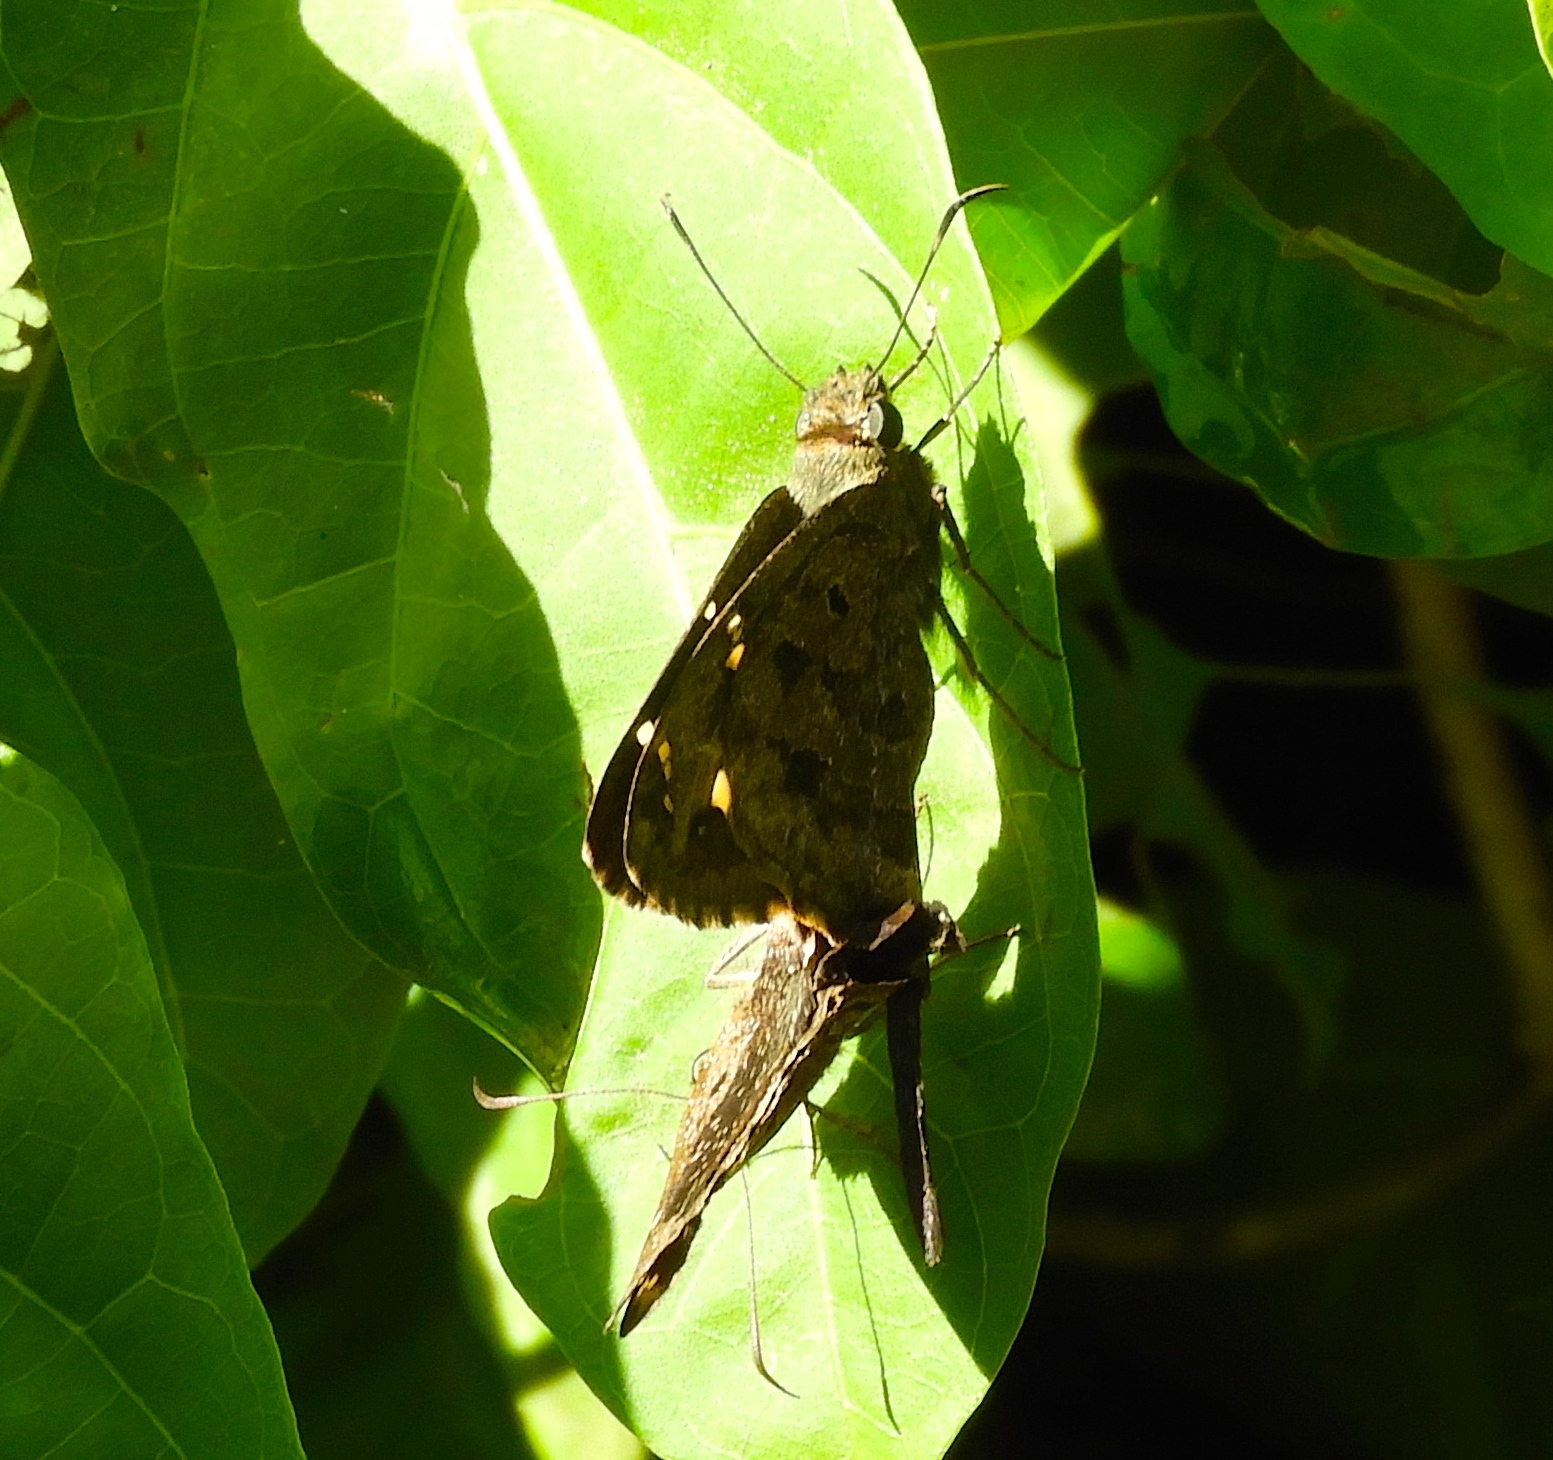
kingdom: Animalia
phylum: Arthropoda
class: Insecta
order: Lepidoptera
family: Hesperiidae
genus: Thorybes
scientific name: Thorybes
